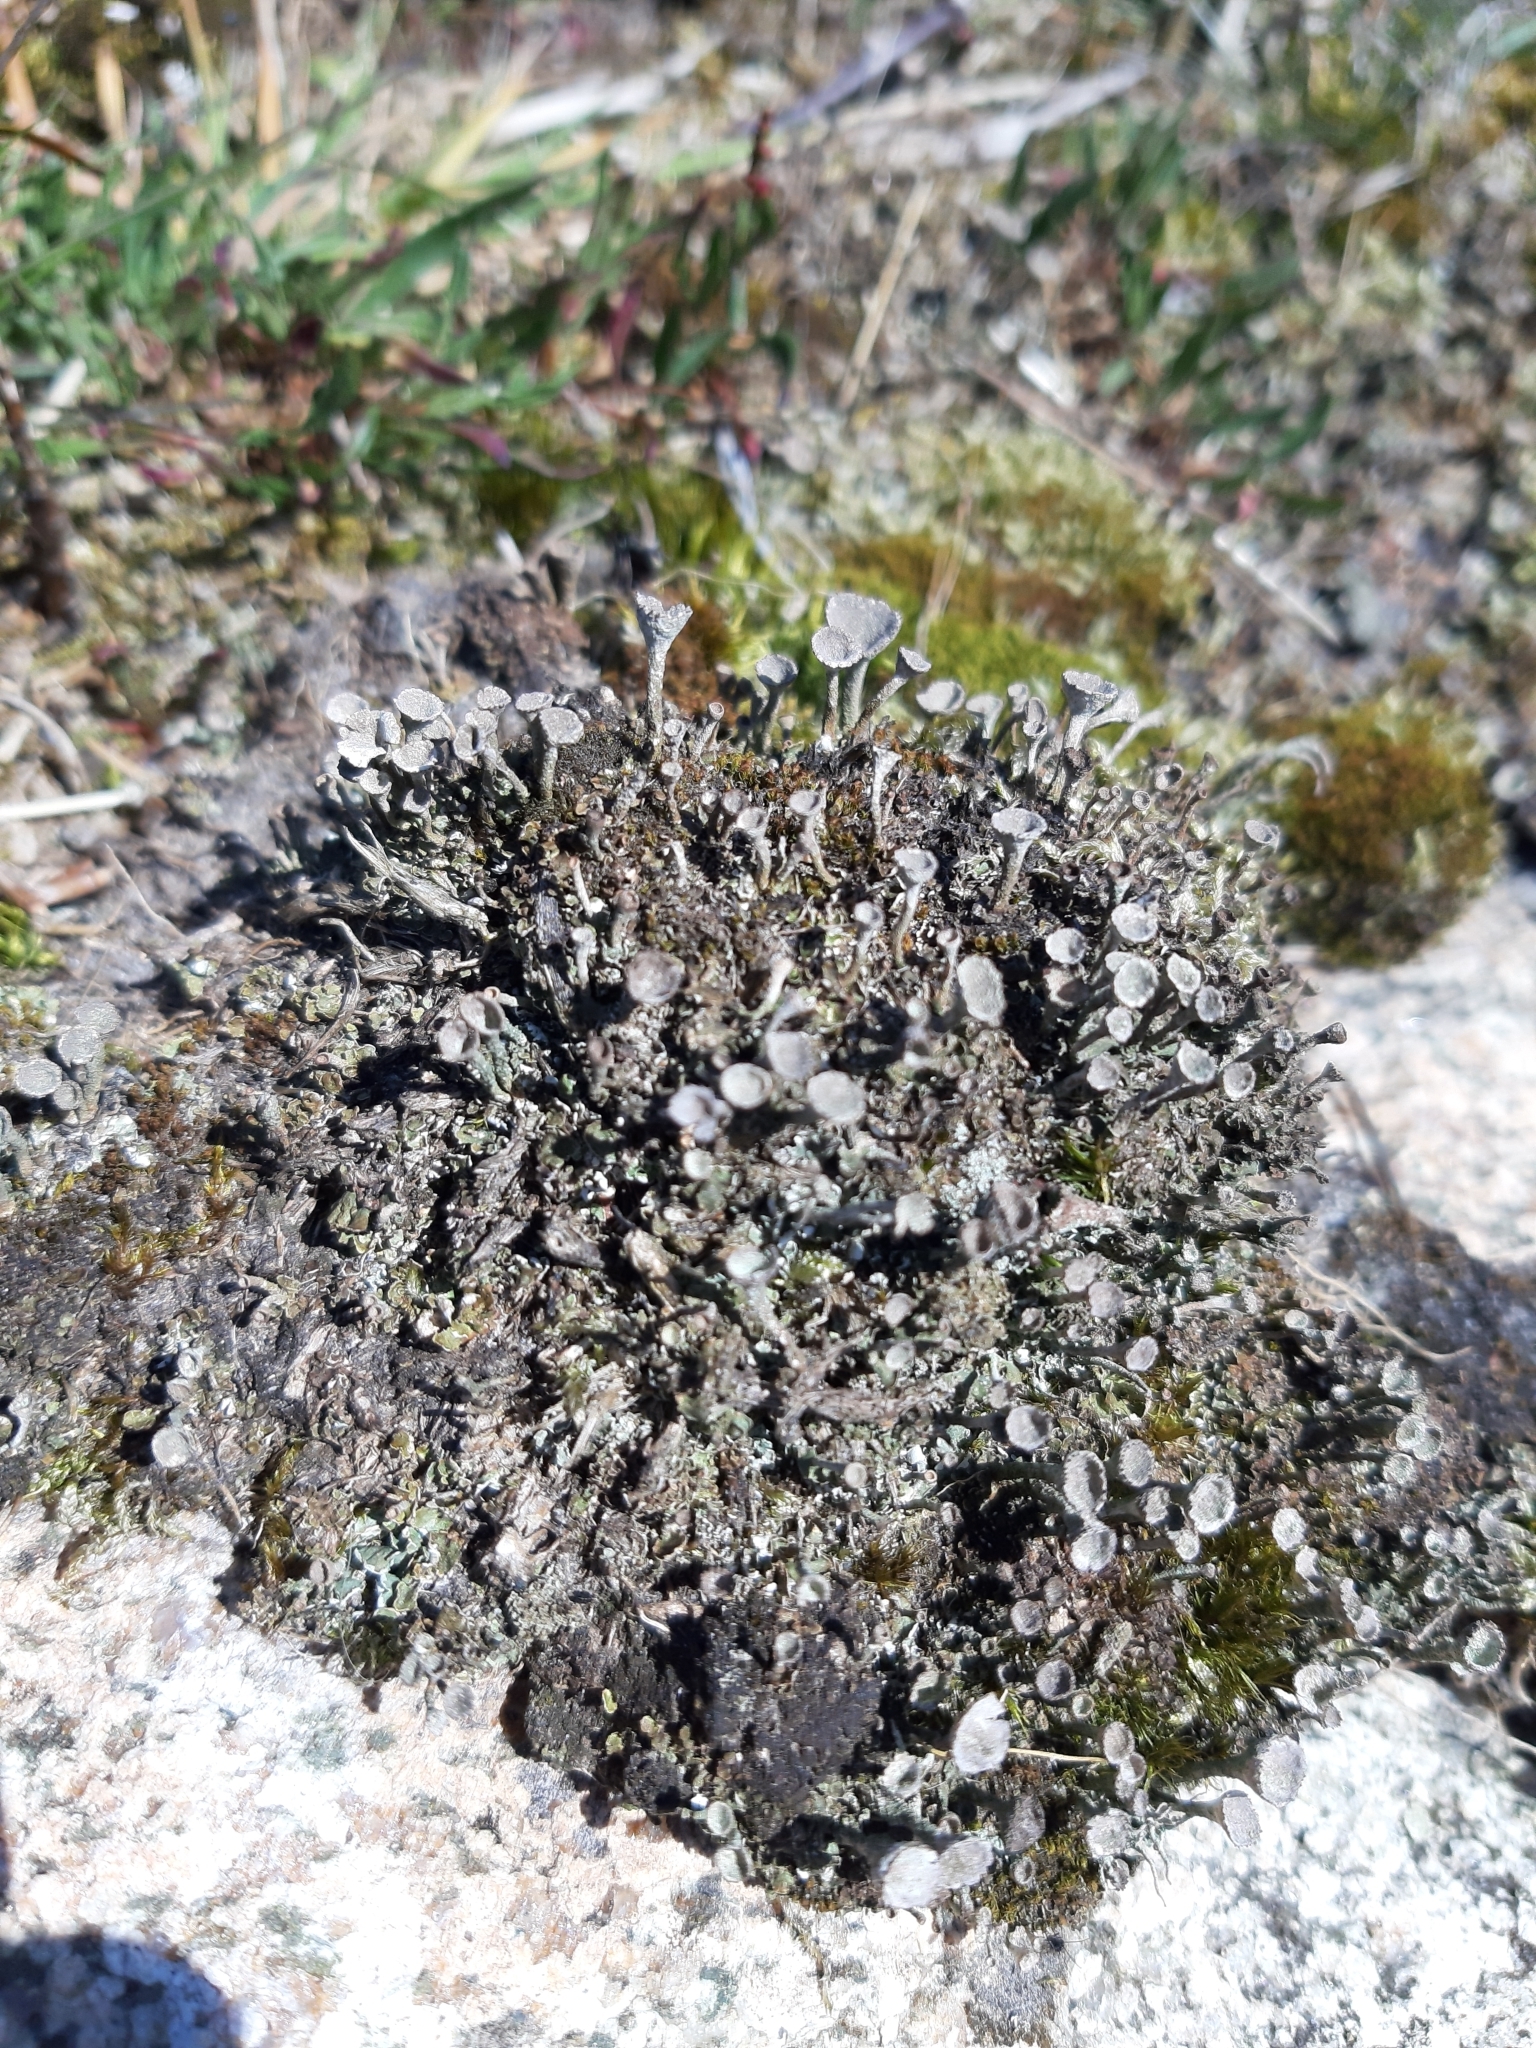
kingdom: Fungi
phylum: Ascomycota
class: Lecanoromycetes
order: Lecanorales
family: Cladoniaceae
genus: Cladonia
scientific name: Cladonia
